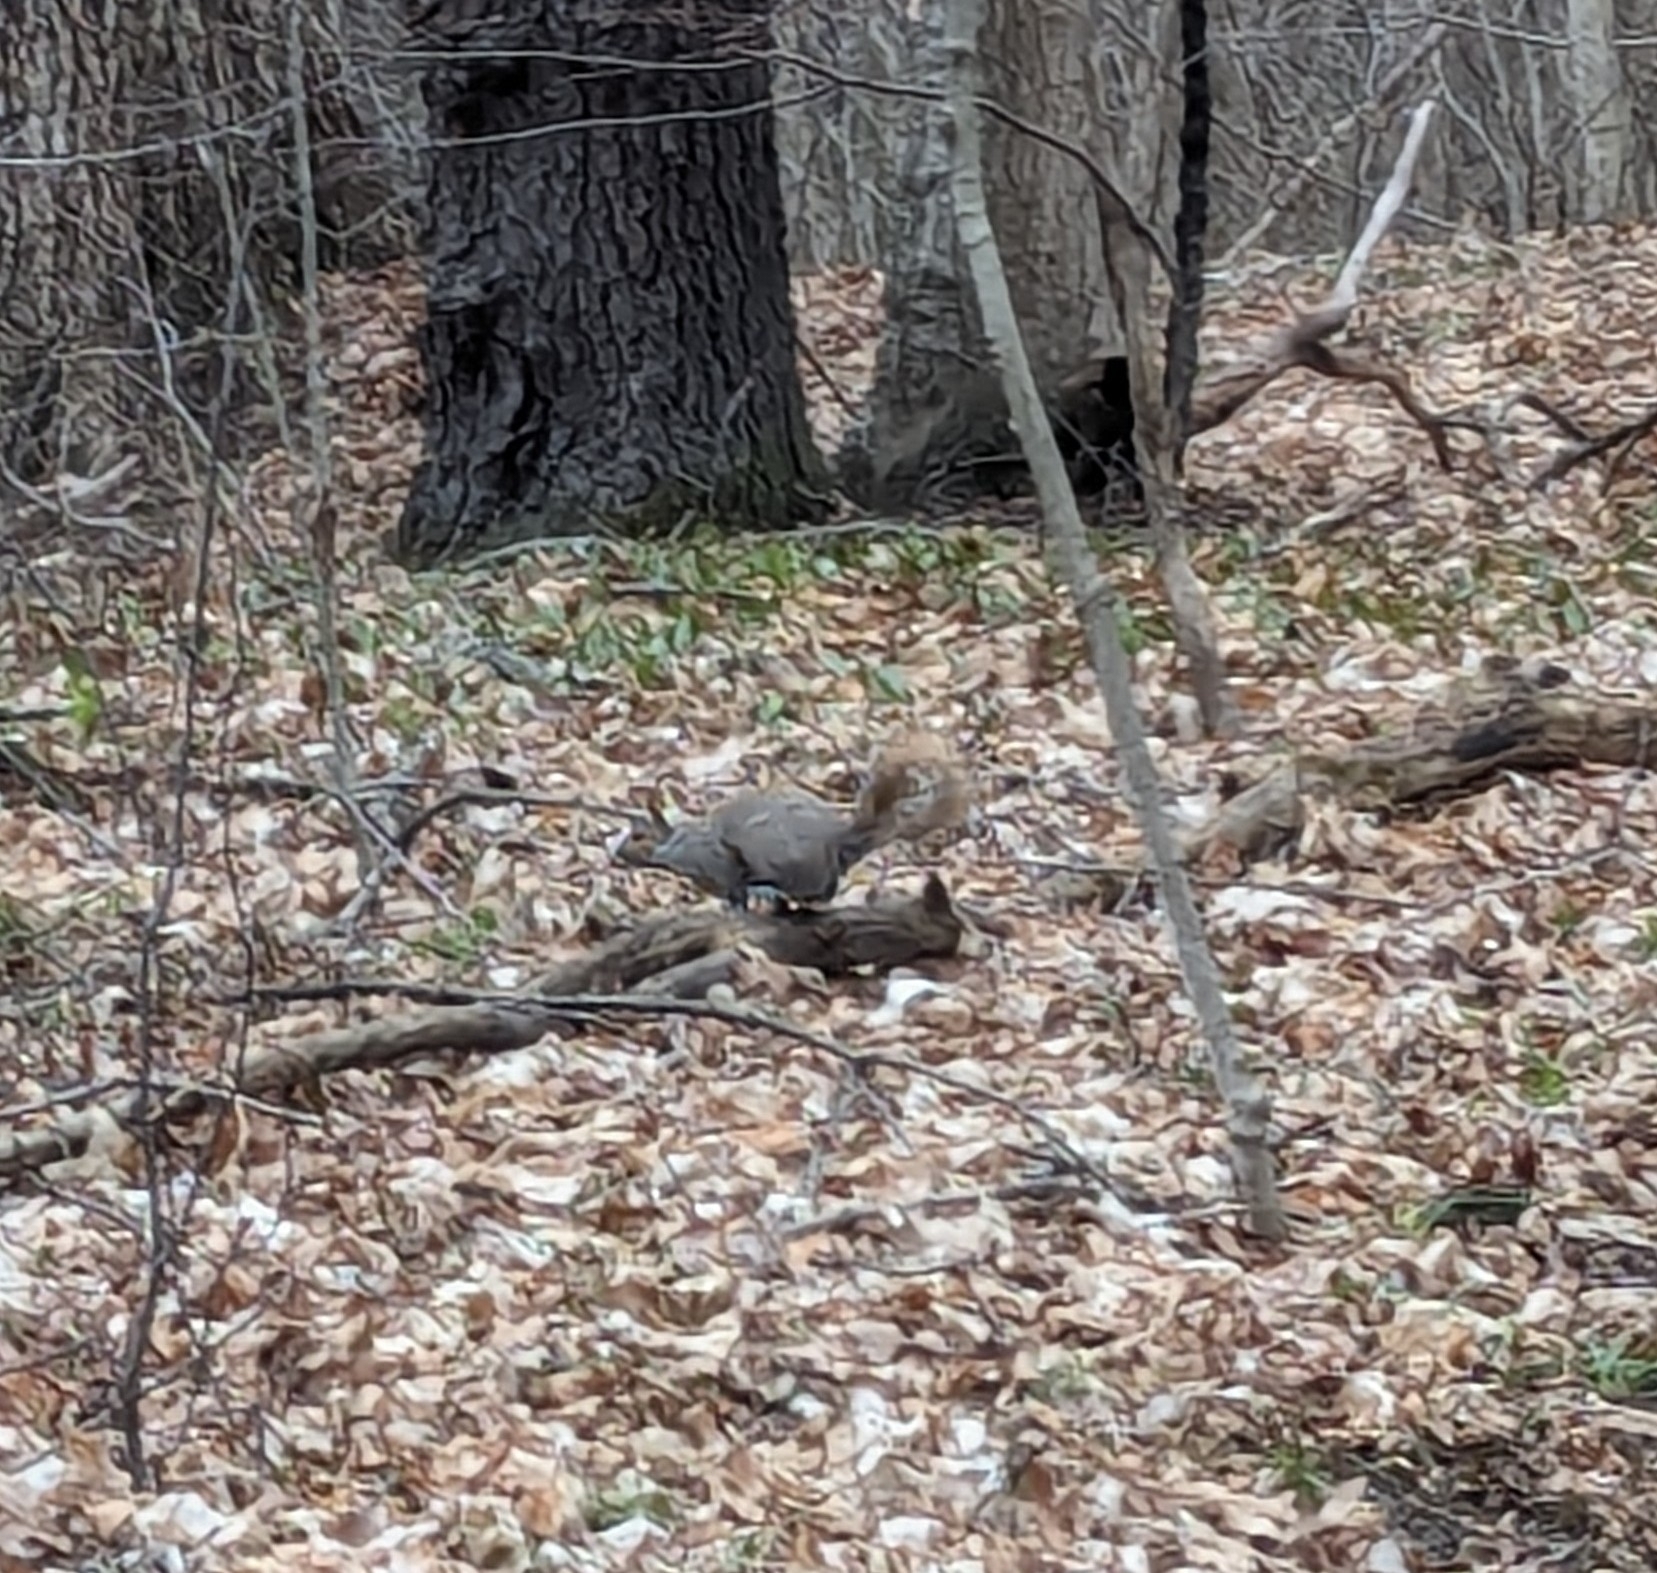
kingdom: Animalia
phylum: Chordata
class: Mammalia
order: Rodentia
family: Sciuridae
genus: Sciurus
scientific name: Sciurus carolinensis
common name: Eastern gray squirrel
